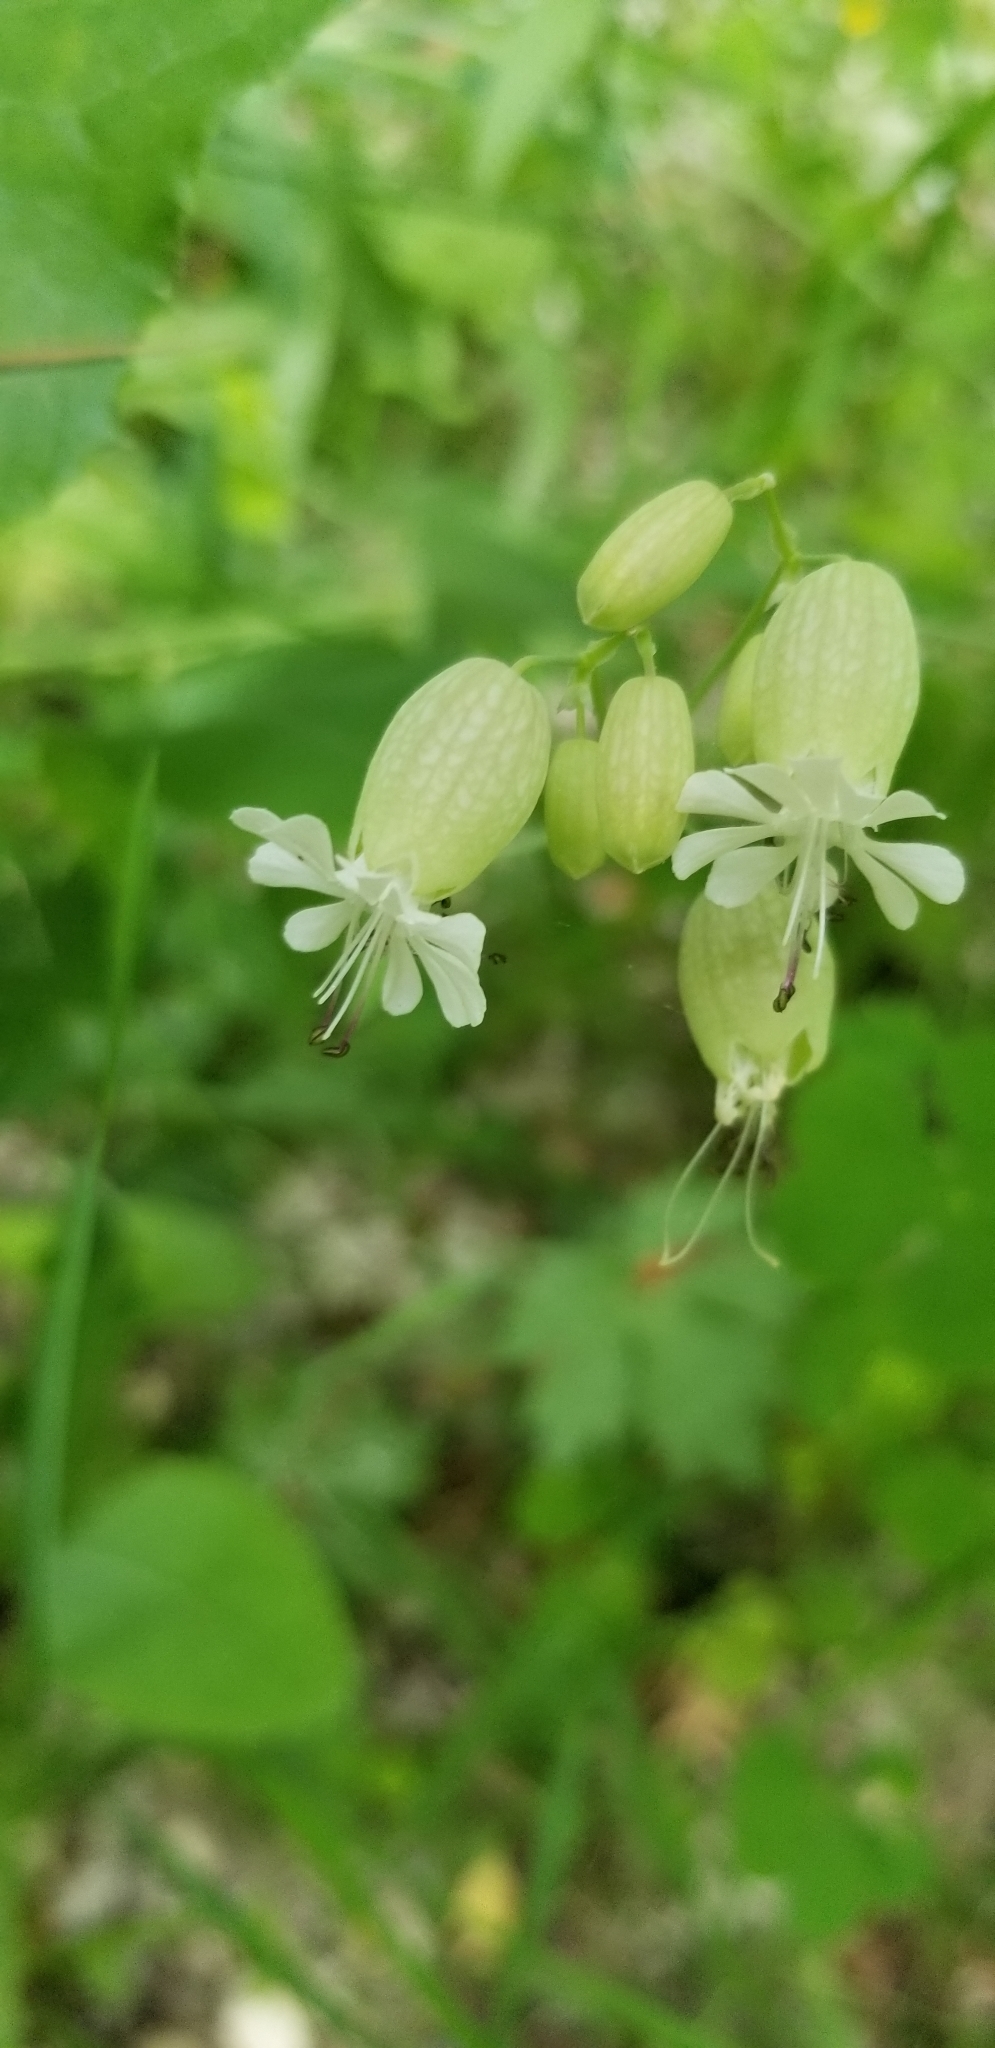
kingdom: Plantae
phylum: Tracheophyta
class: Magnoliopsida
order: Caryophyllales
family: Caryophyllaceae
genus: Silene
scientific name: Silene vulgaris
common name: Bladder campion
